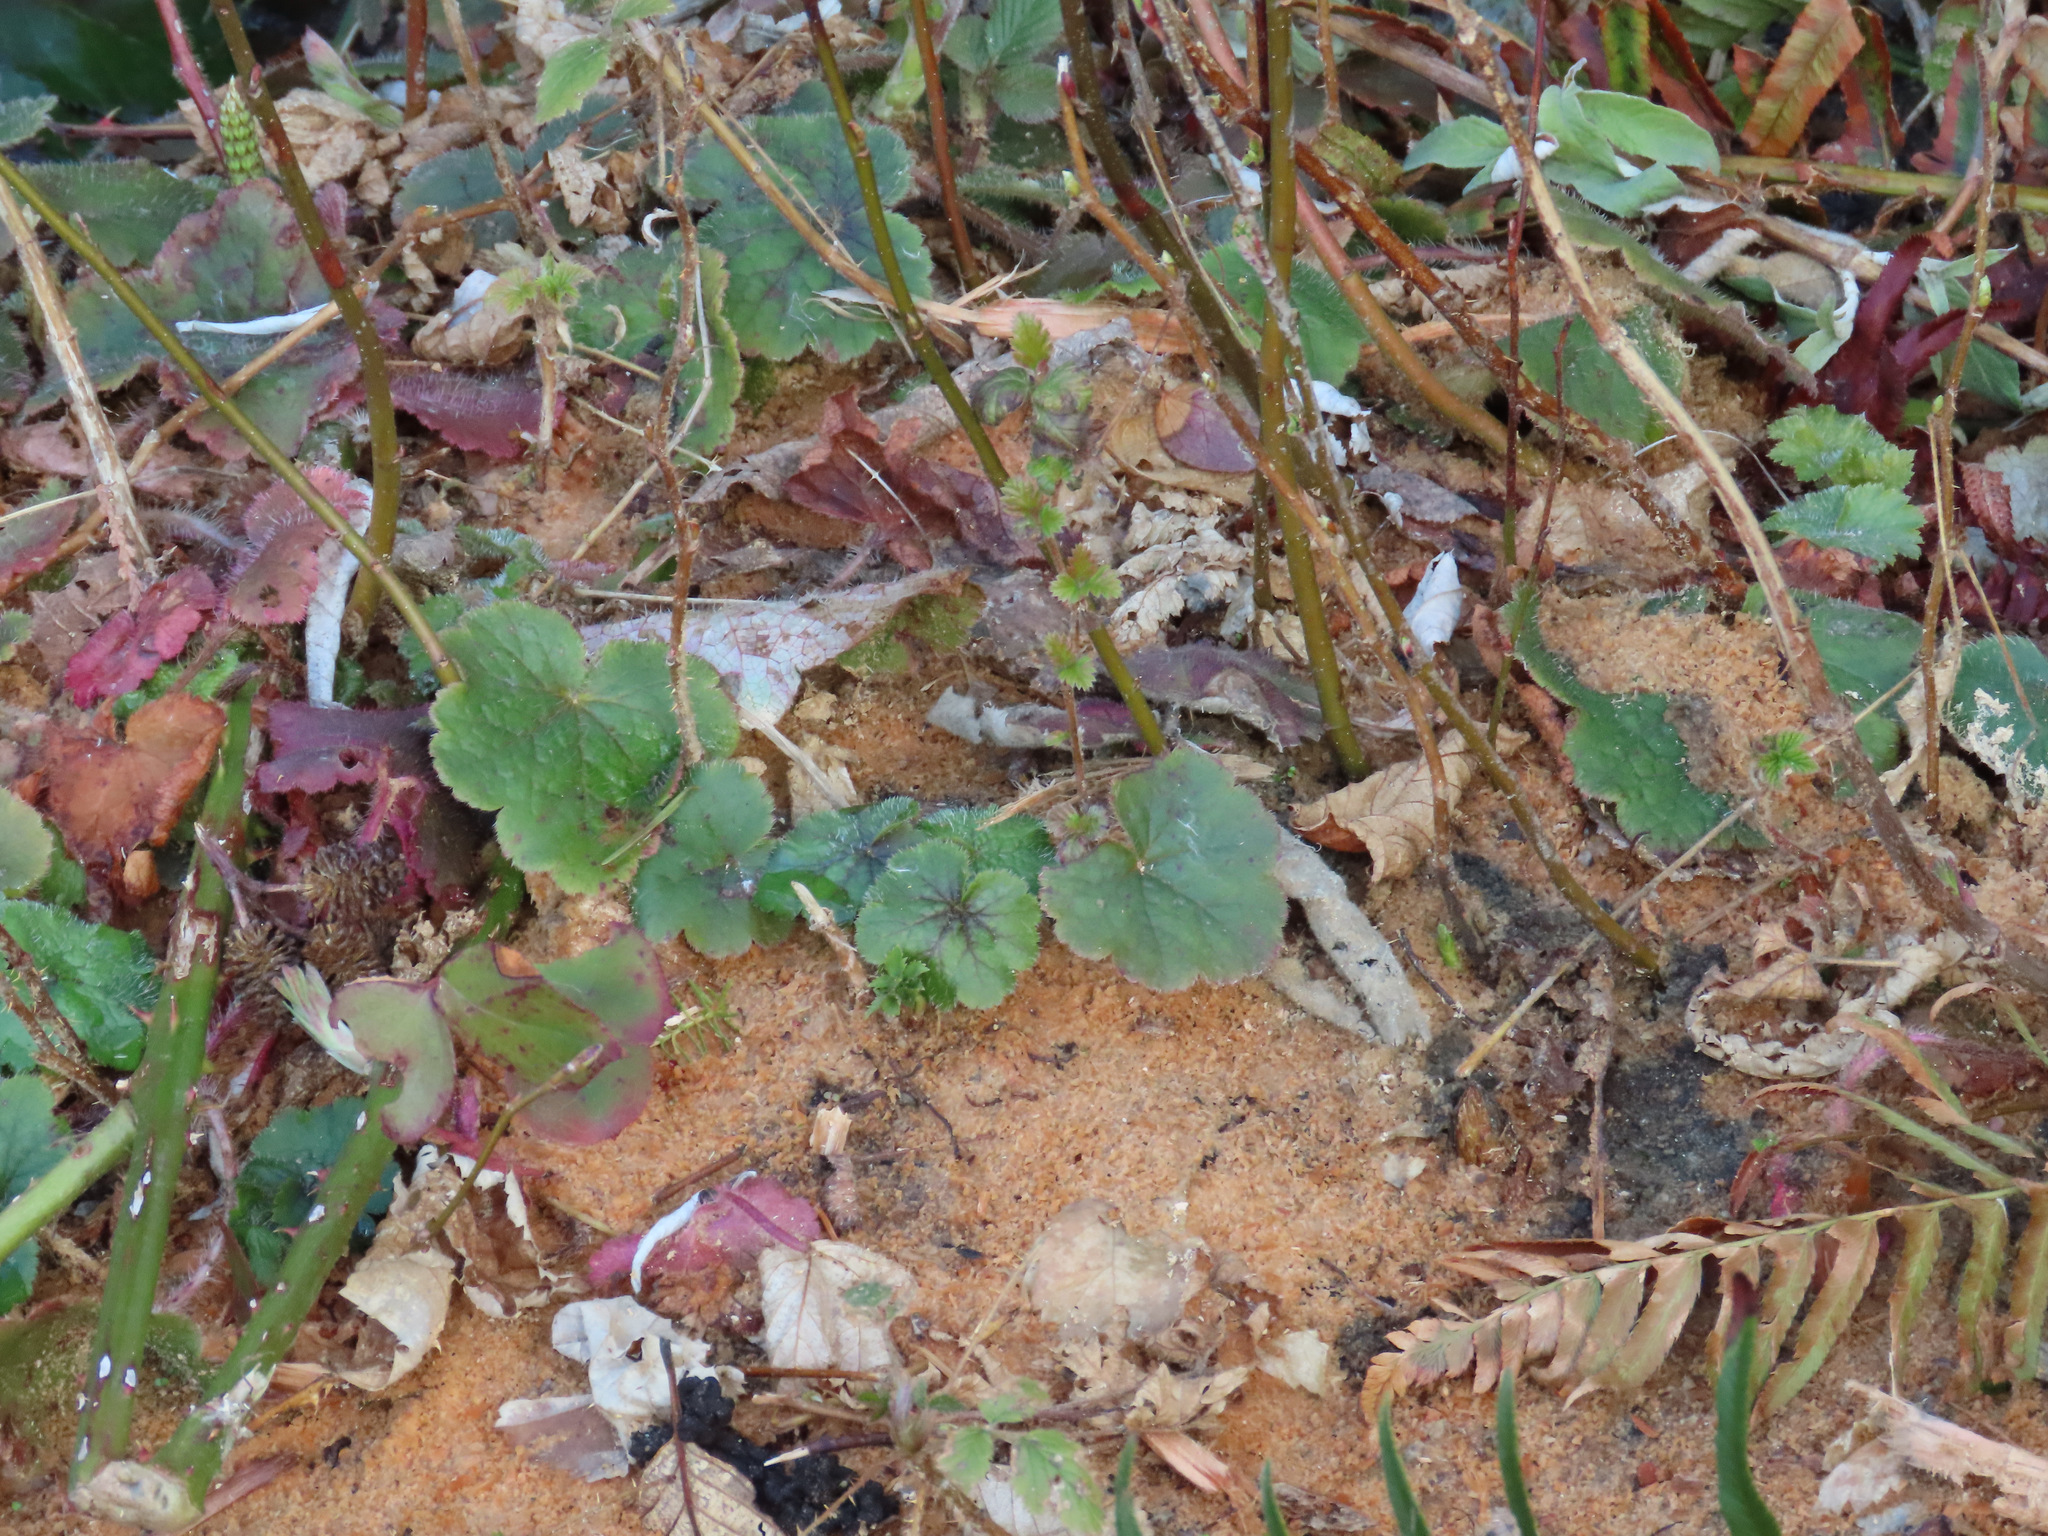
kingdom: Plantae
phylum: Tracheophyta
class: Magnoliopsida
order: Saxifragales
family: Saxifragaceae
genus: Tellima
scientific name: Tellima grandiflora
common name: Fringecups
